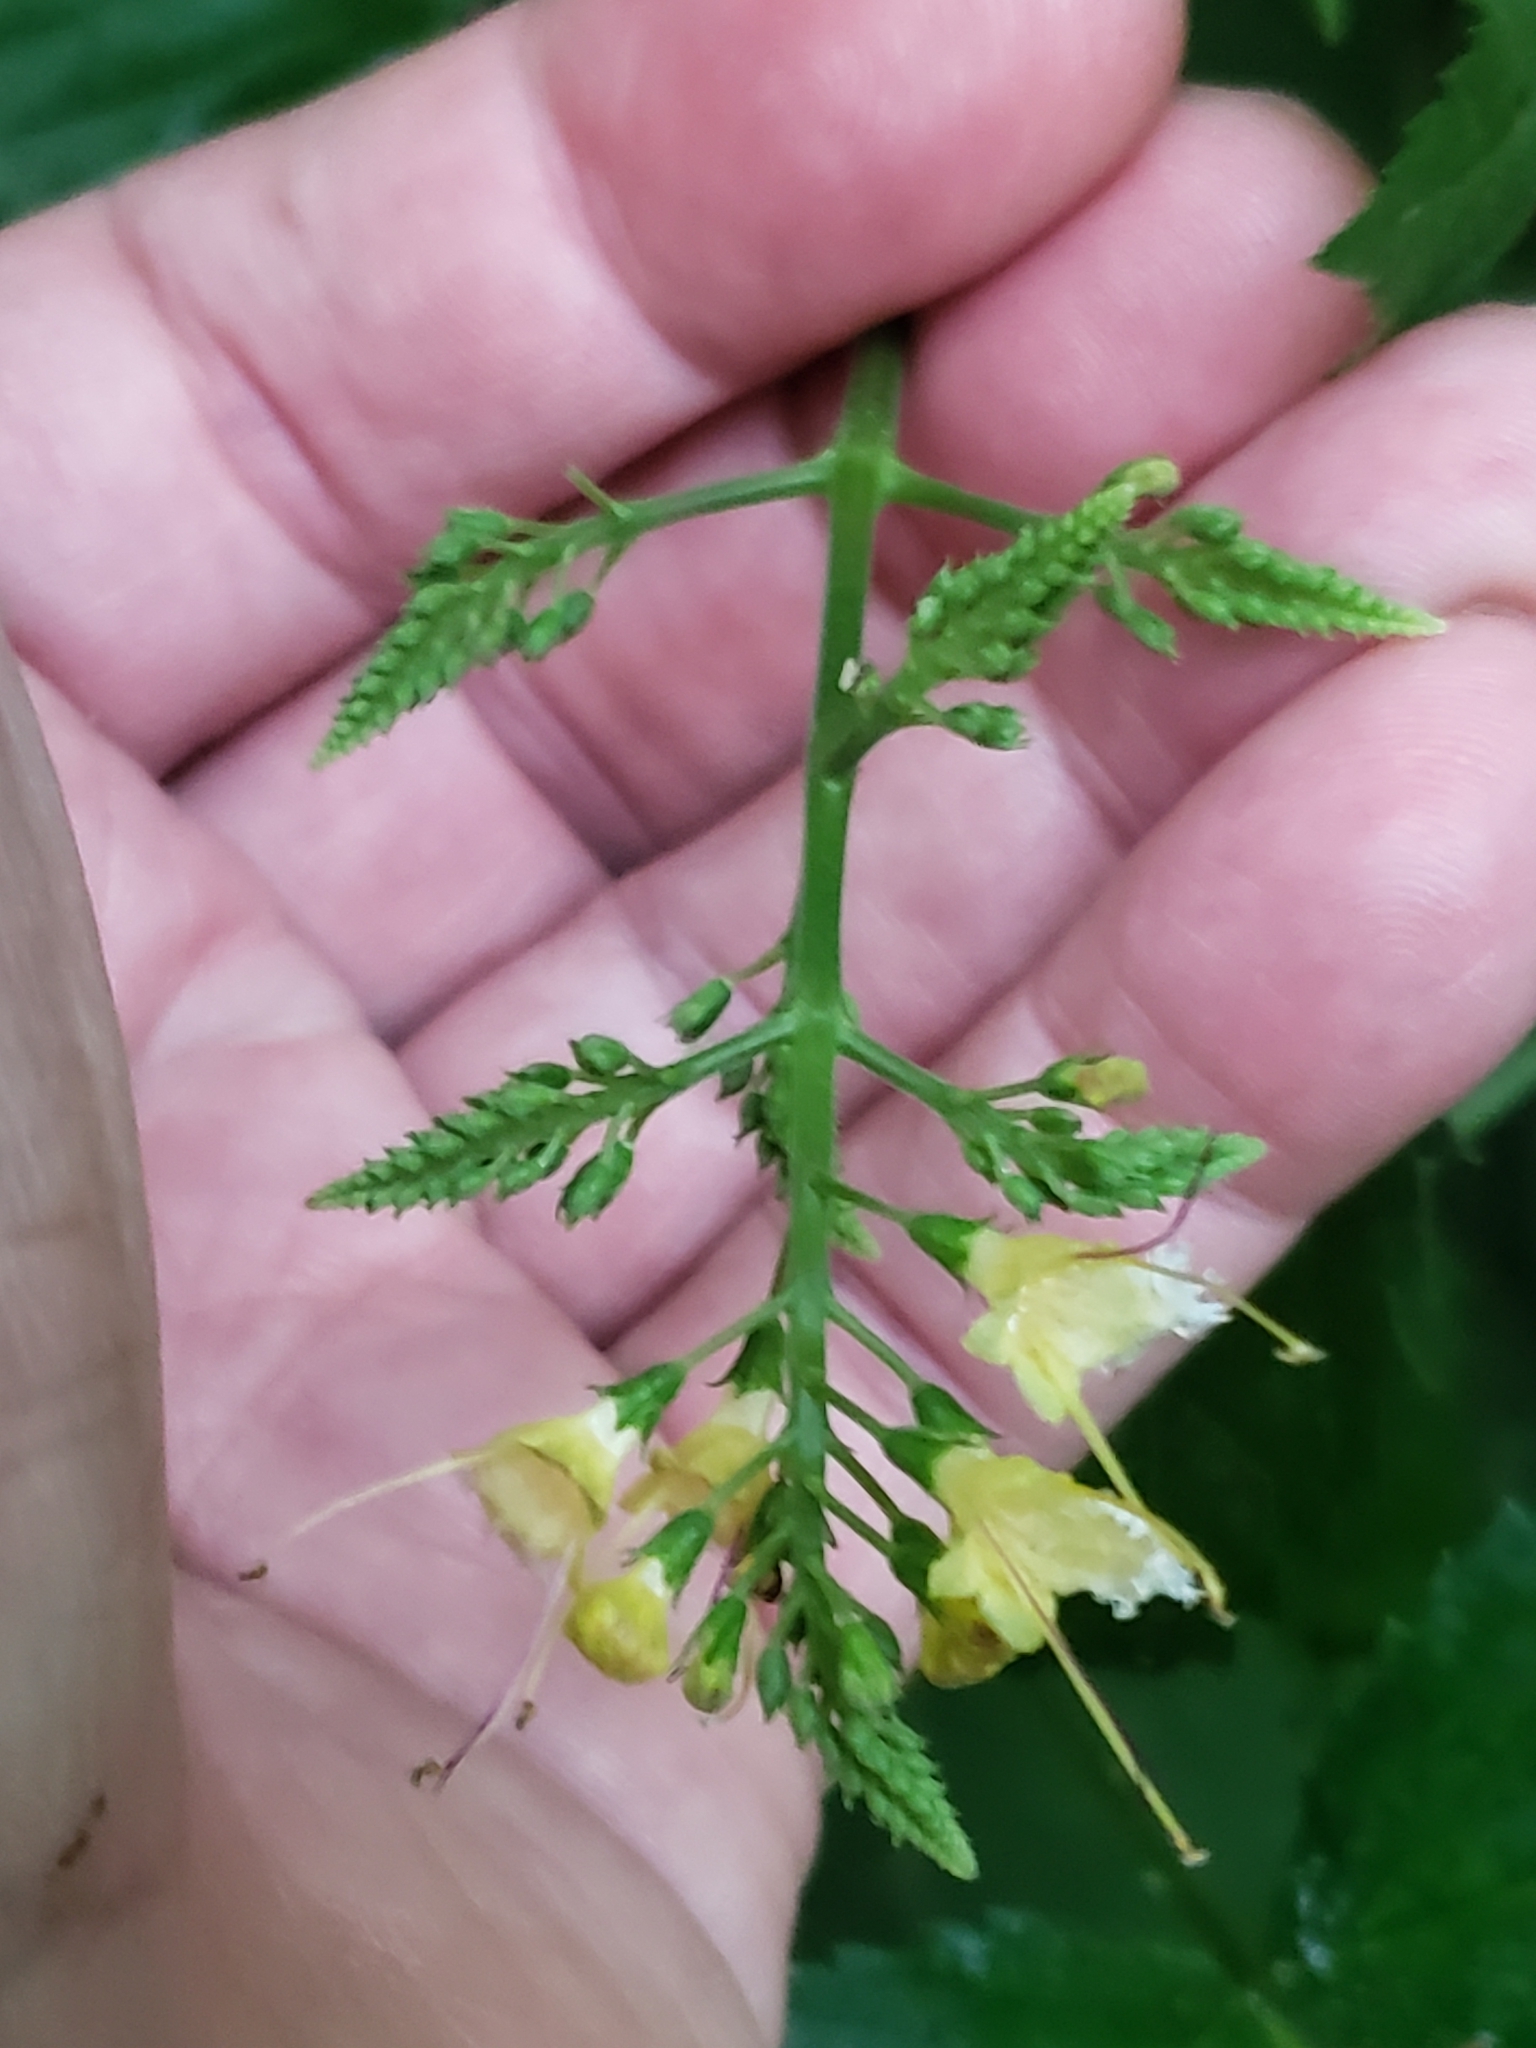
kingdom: Plantae
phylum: Tracheophyta
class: Magnoliopsida
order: Lamiales
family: Lamiaceae
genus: Collinsonia
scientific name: Collinsonia canadensis
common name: Northern horsebalm
